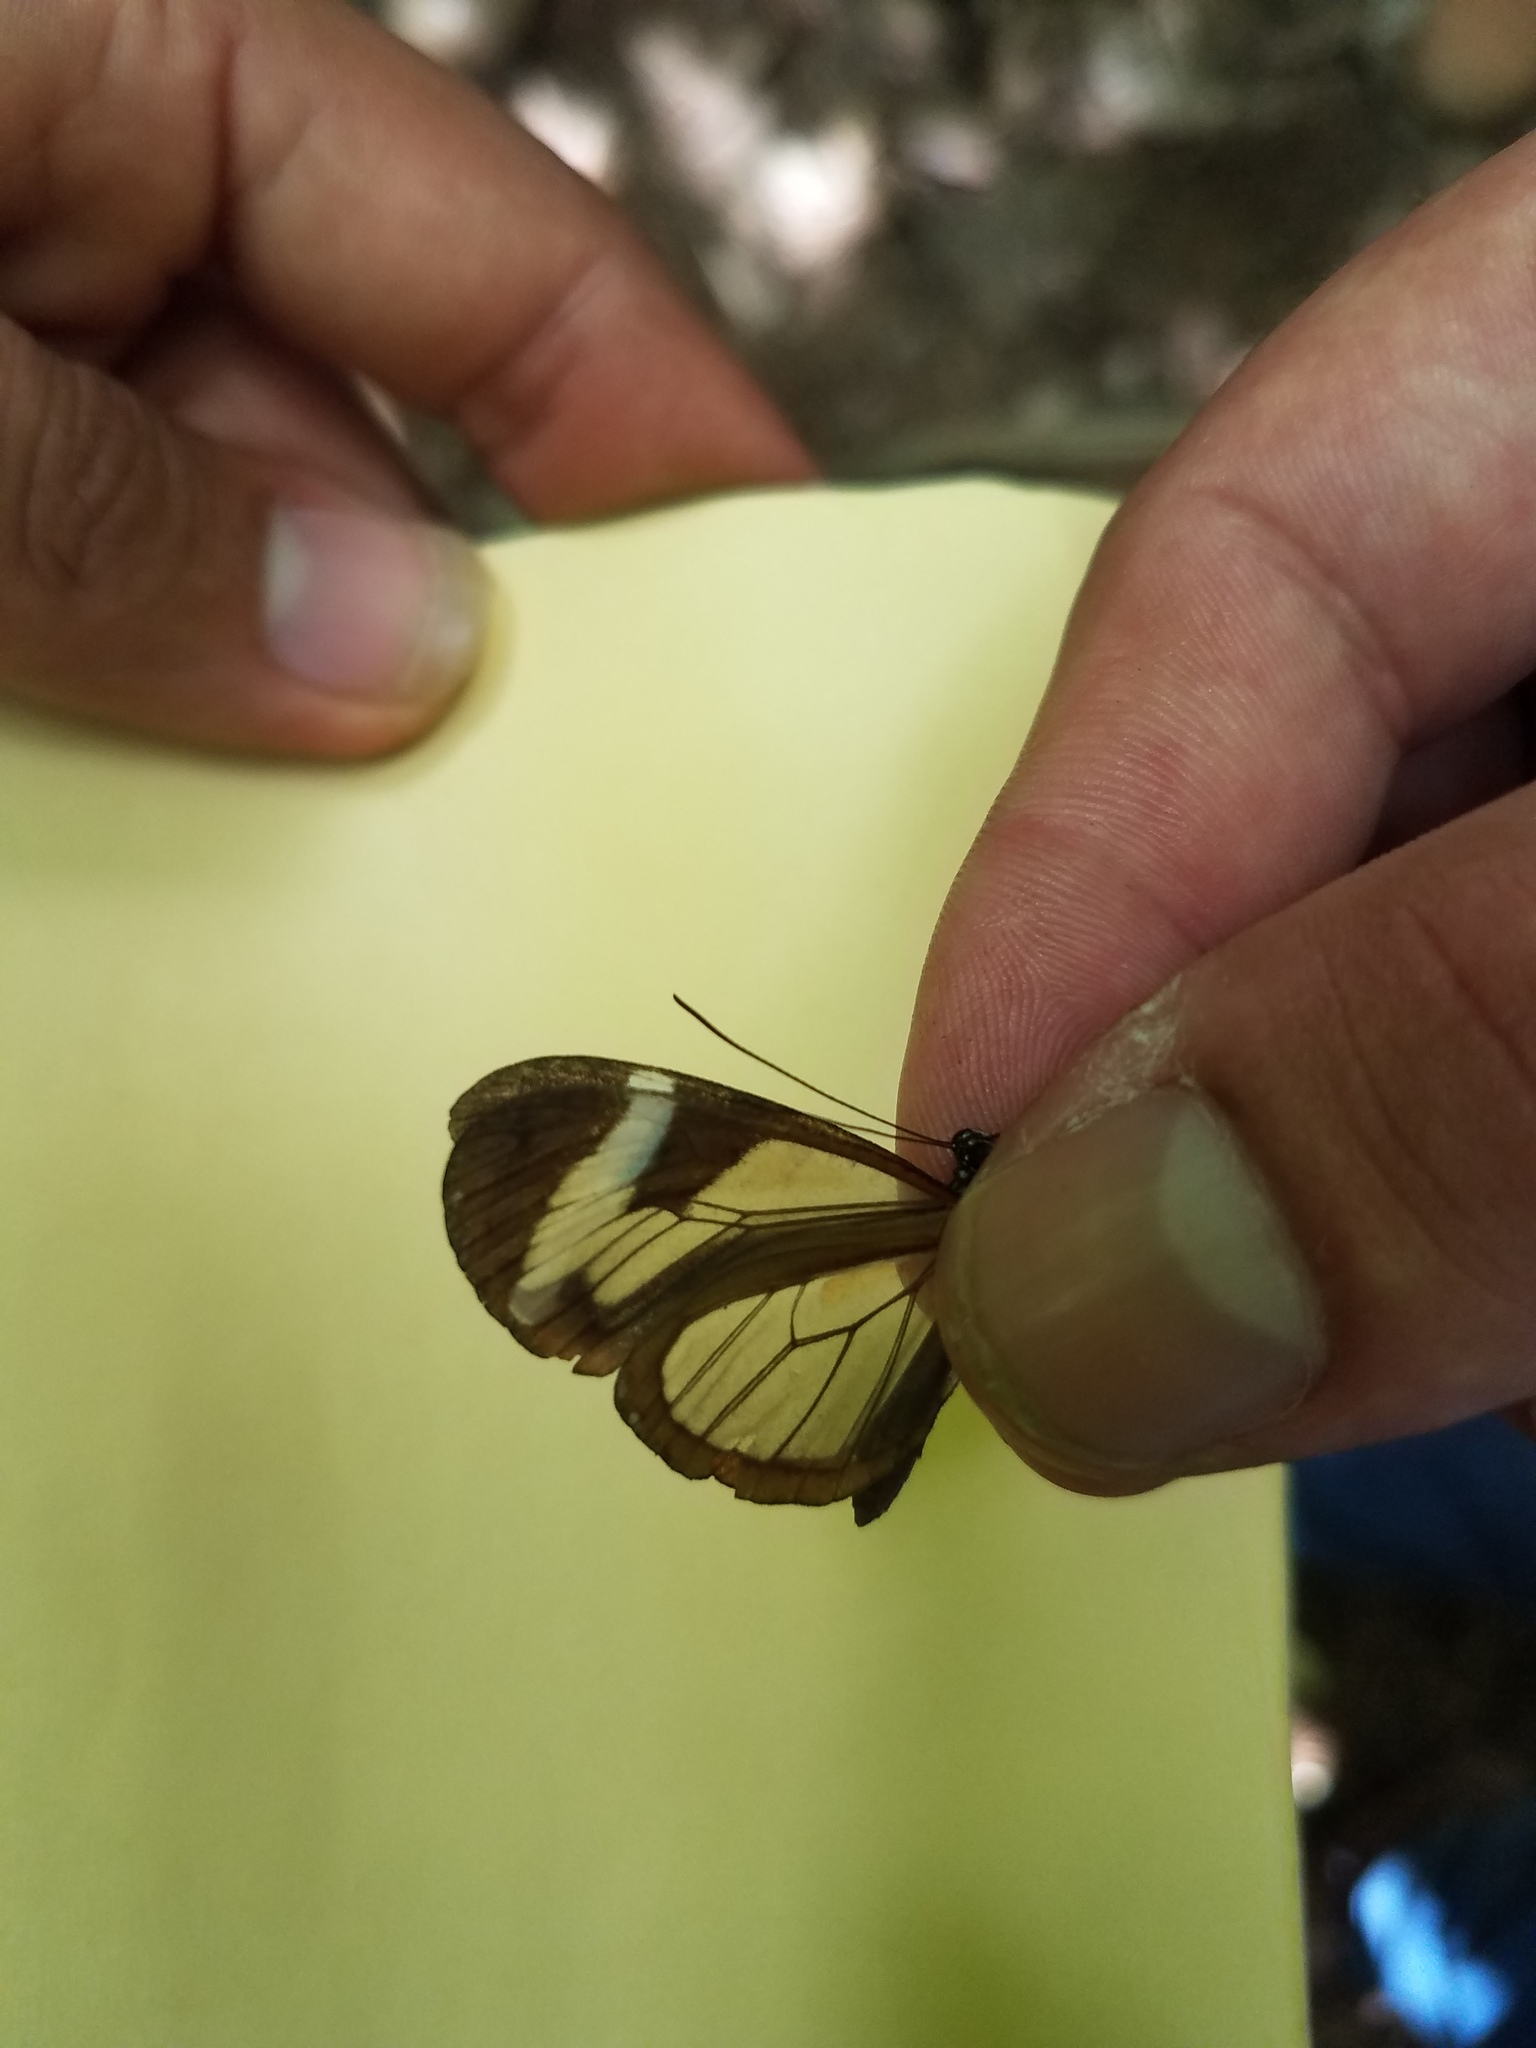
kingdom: Animalia
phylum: Arthropoda
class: Insecta
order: Lepidoptera
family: Nymphalidae
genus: Oleria
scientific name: Oleria paula
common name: Paula's clearwing
